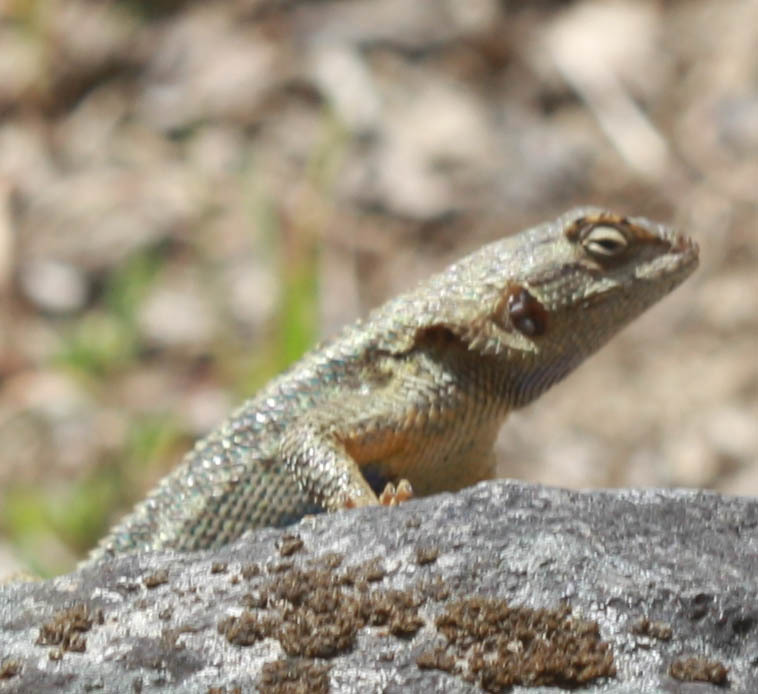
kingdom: Animalia
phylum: Chordata
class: Squamata
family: Phrynosomatidae
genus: Sceloporus
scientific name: Sceloporus occidentalis
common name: Western fence lizard
